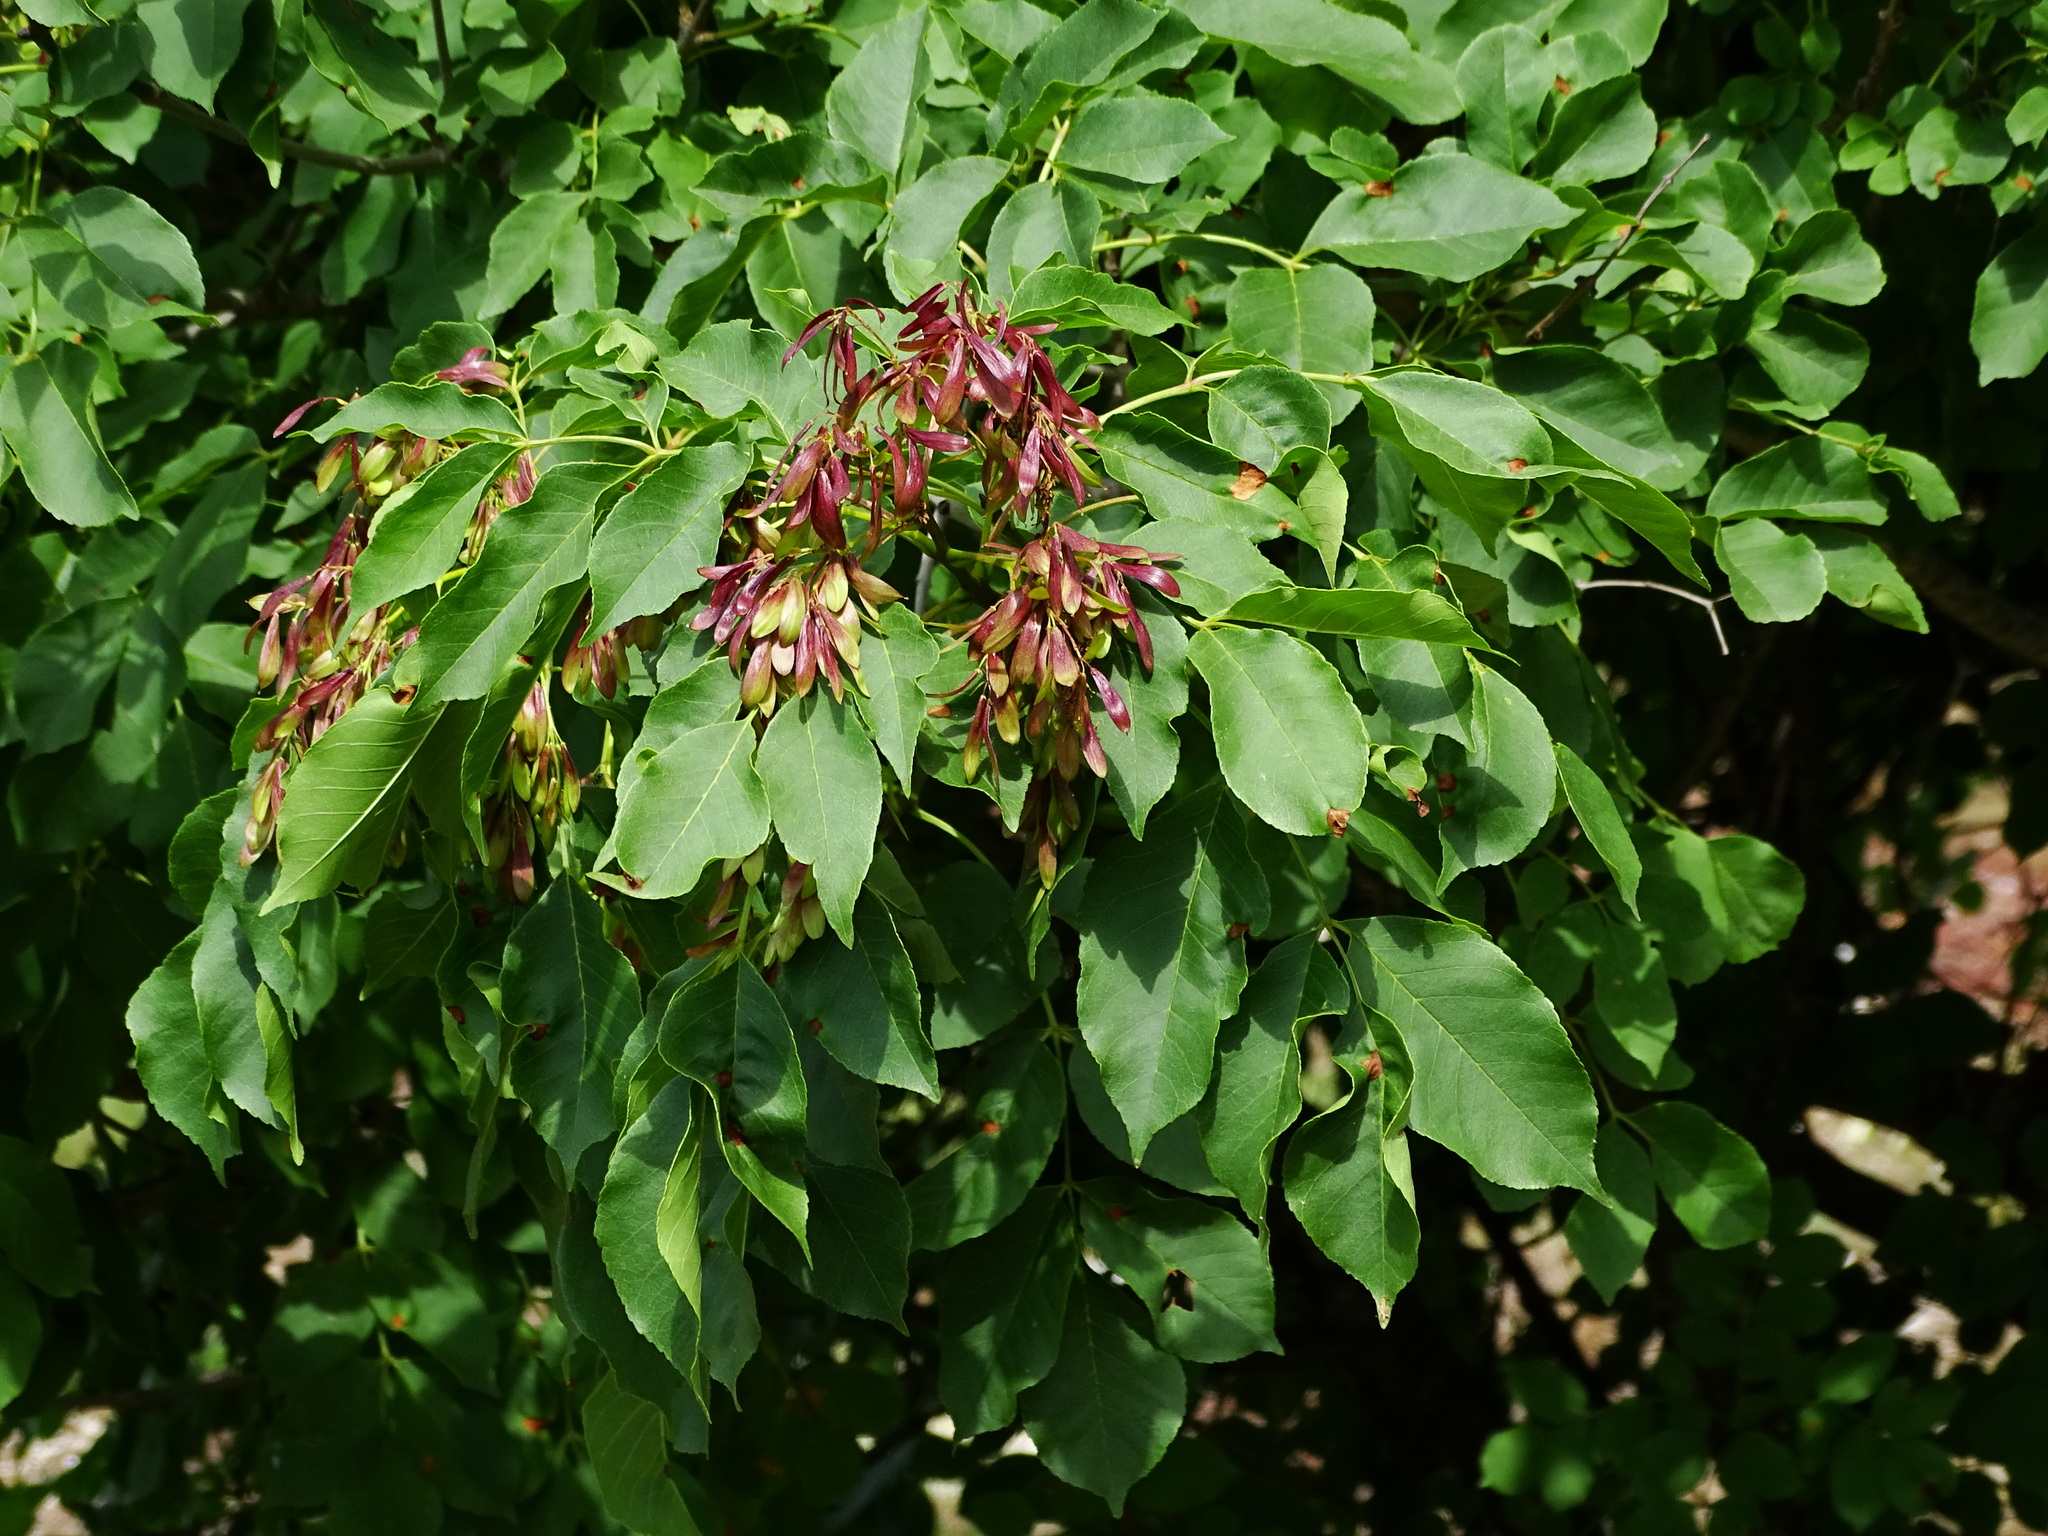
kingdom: Plantae
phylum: Tracheophyta
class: Magnoliopsida
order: Lamiales
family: Oleaceae
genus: Fraxinus
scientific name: Fraxinus ornus
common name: Manna ash
